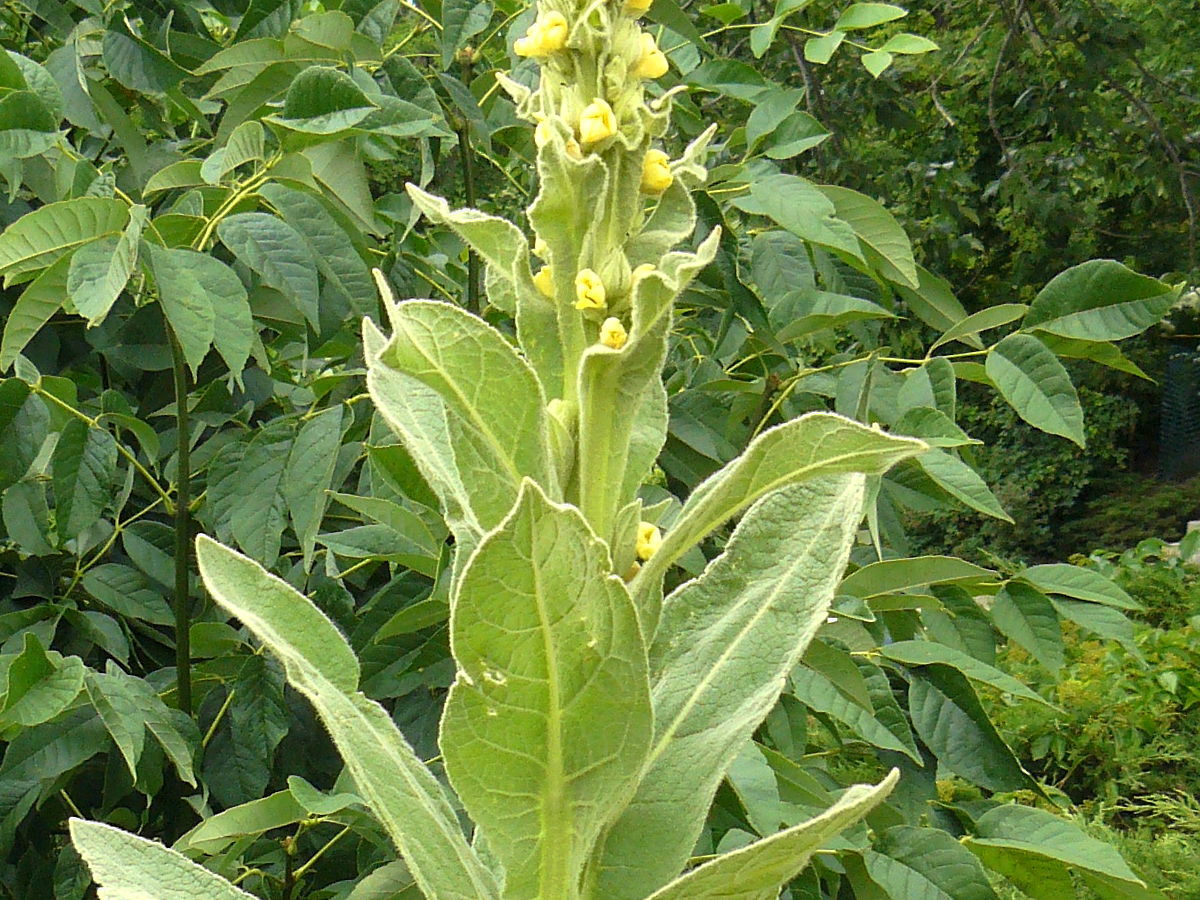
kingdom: Plantae
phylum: Tracheophyta
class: Magnoliopsida
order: Lamiales
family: Scrophulariaceae
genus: Verbascum
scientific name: Verbascum thapsus
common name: Common mullein
